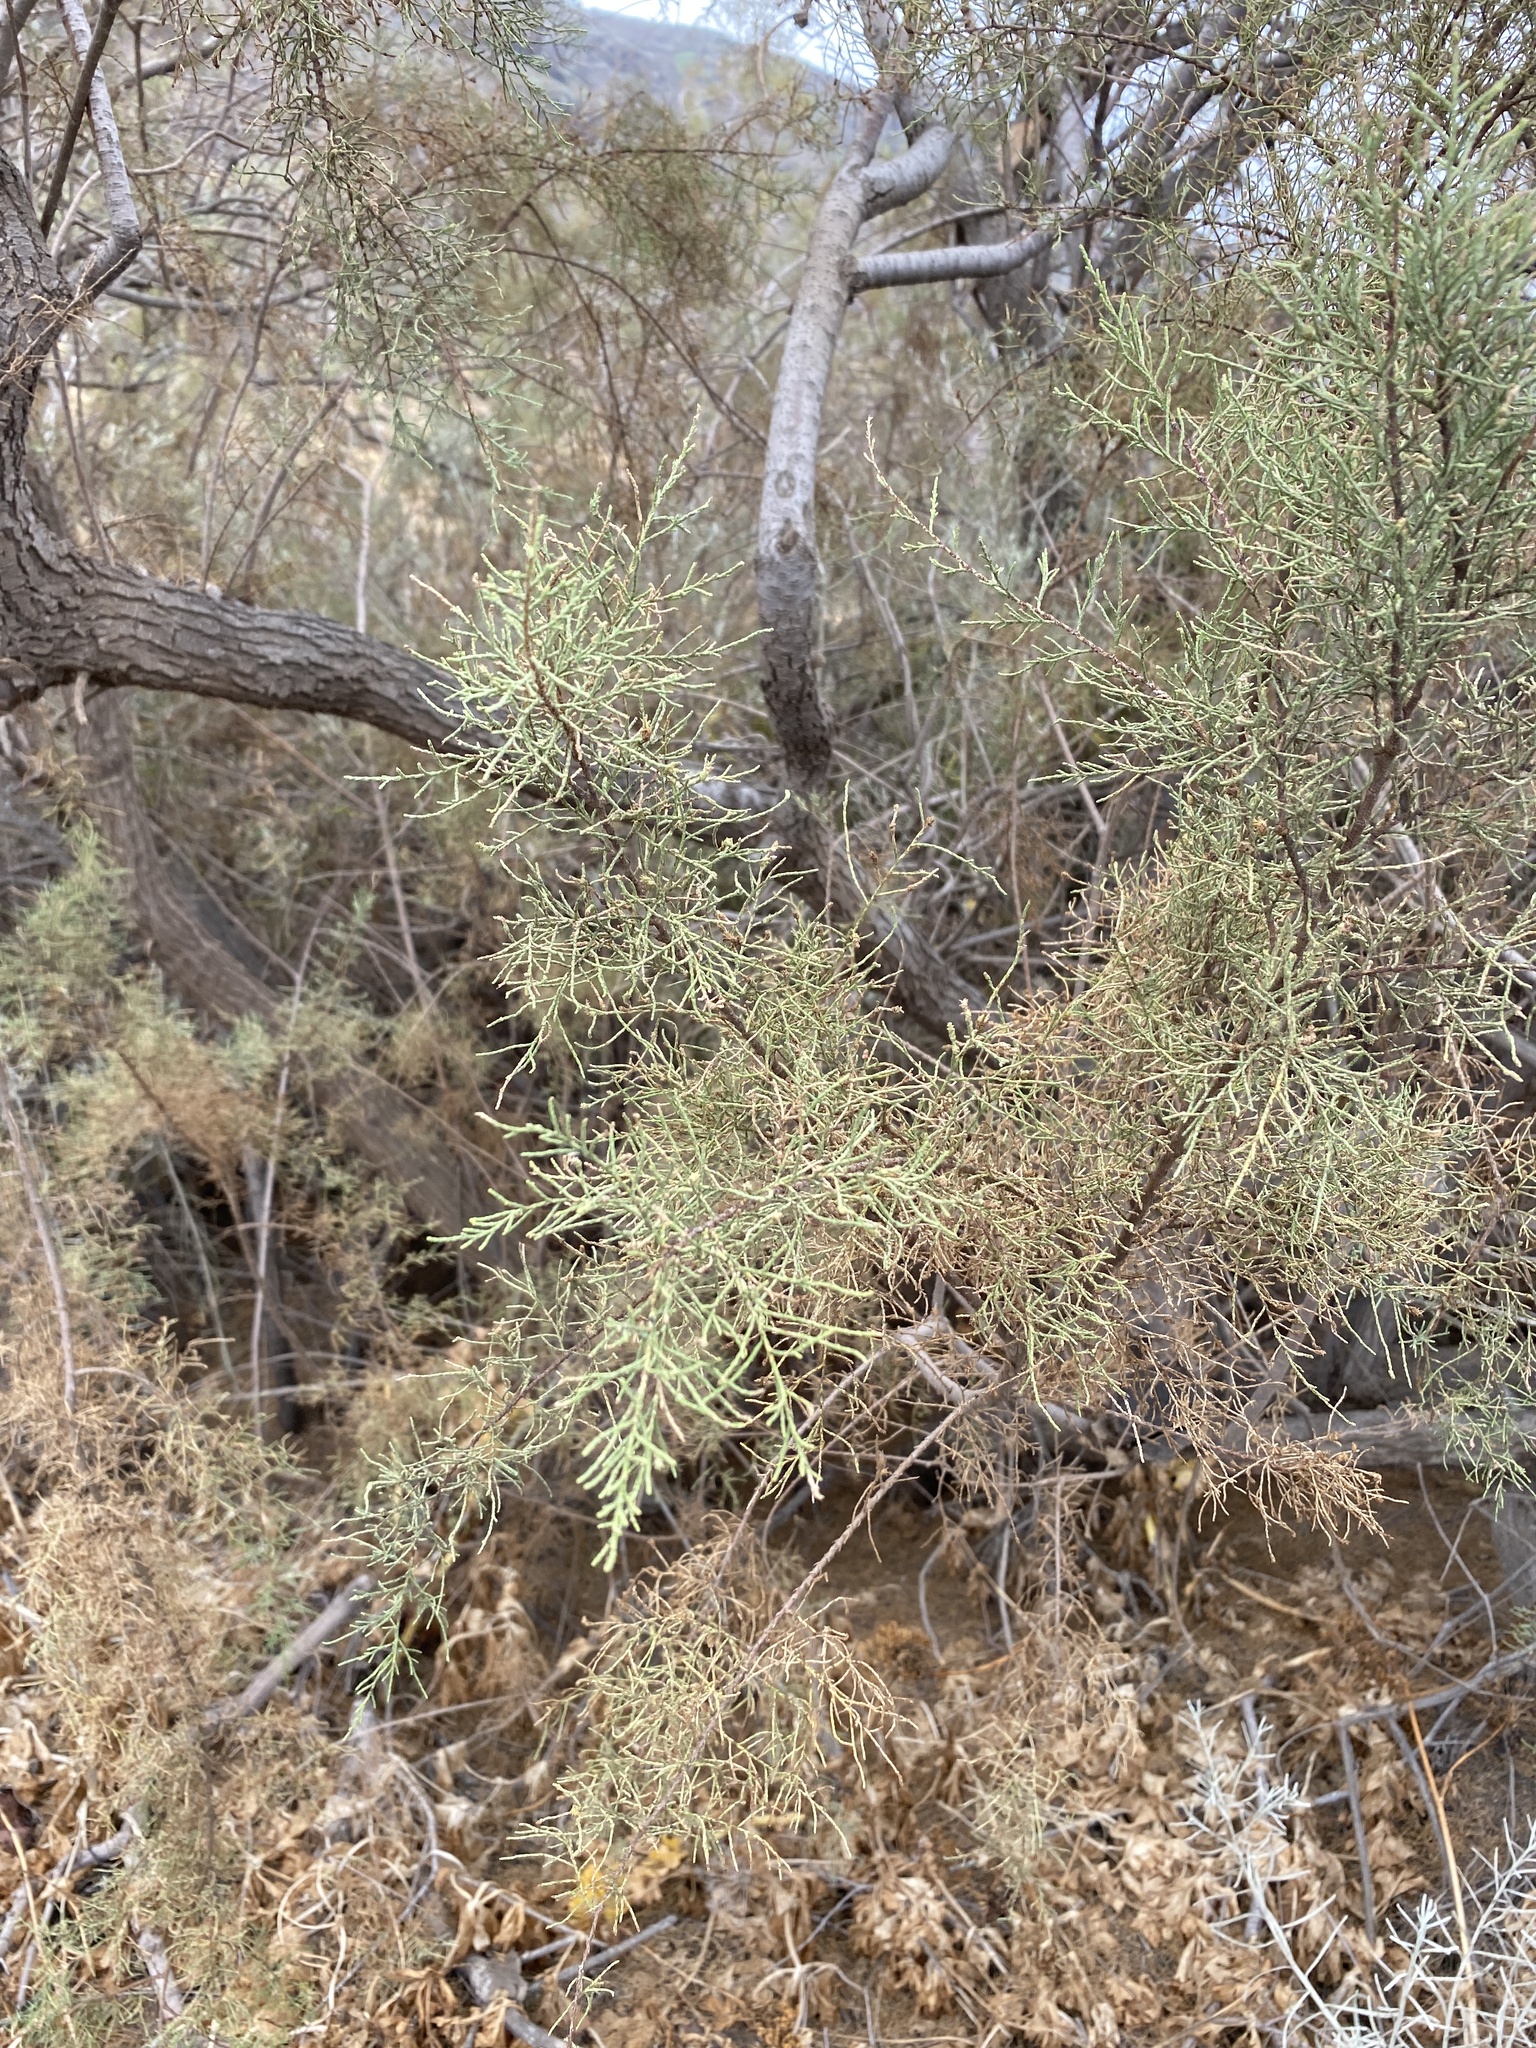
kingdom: Plantae
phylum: Tracheophyta
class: Magnoliopsida
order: Caryophyllales
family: Tamaricaceae
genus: Tamarix
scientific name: Tamarix canariensis
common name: Canary island tamarisk
